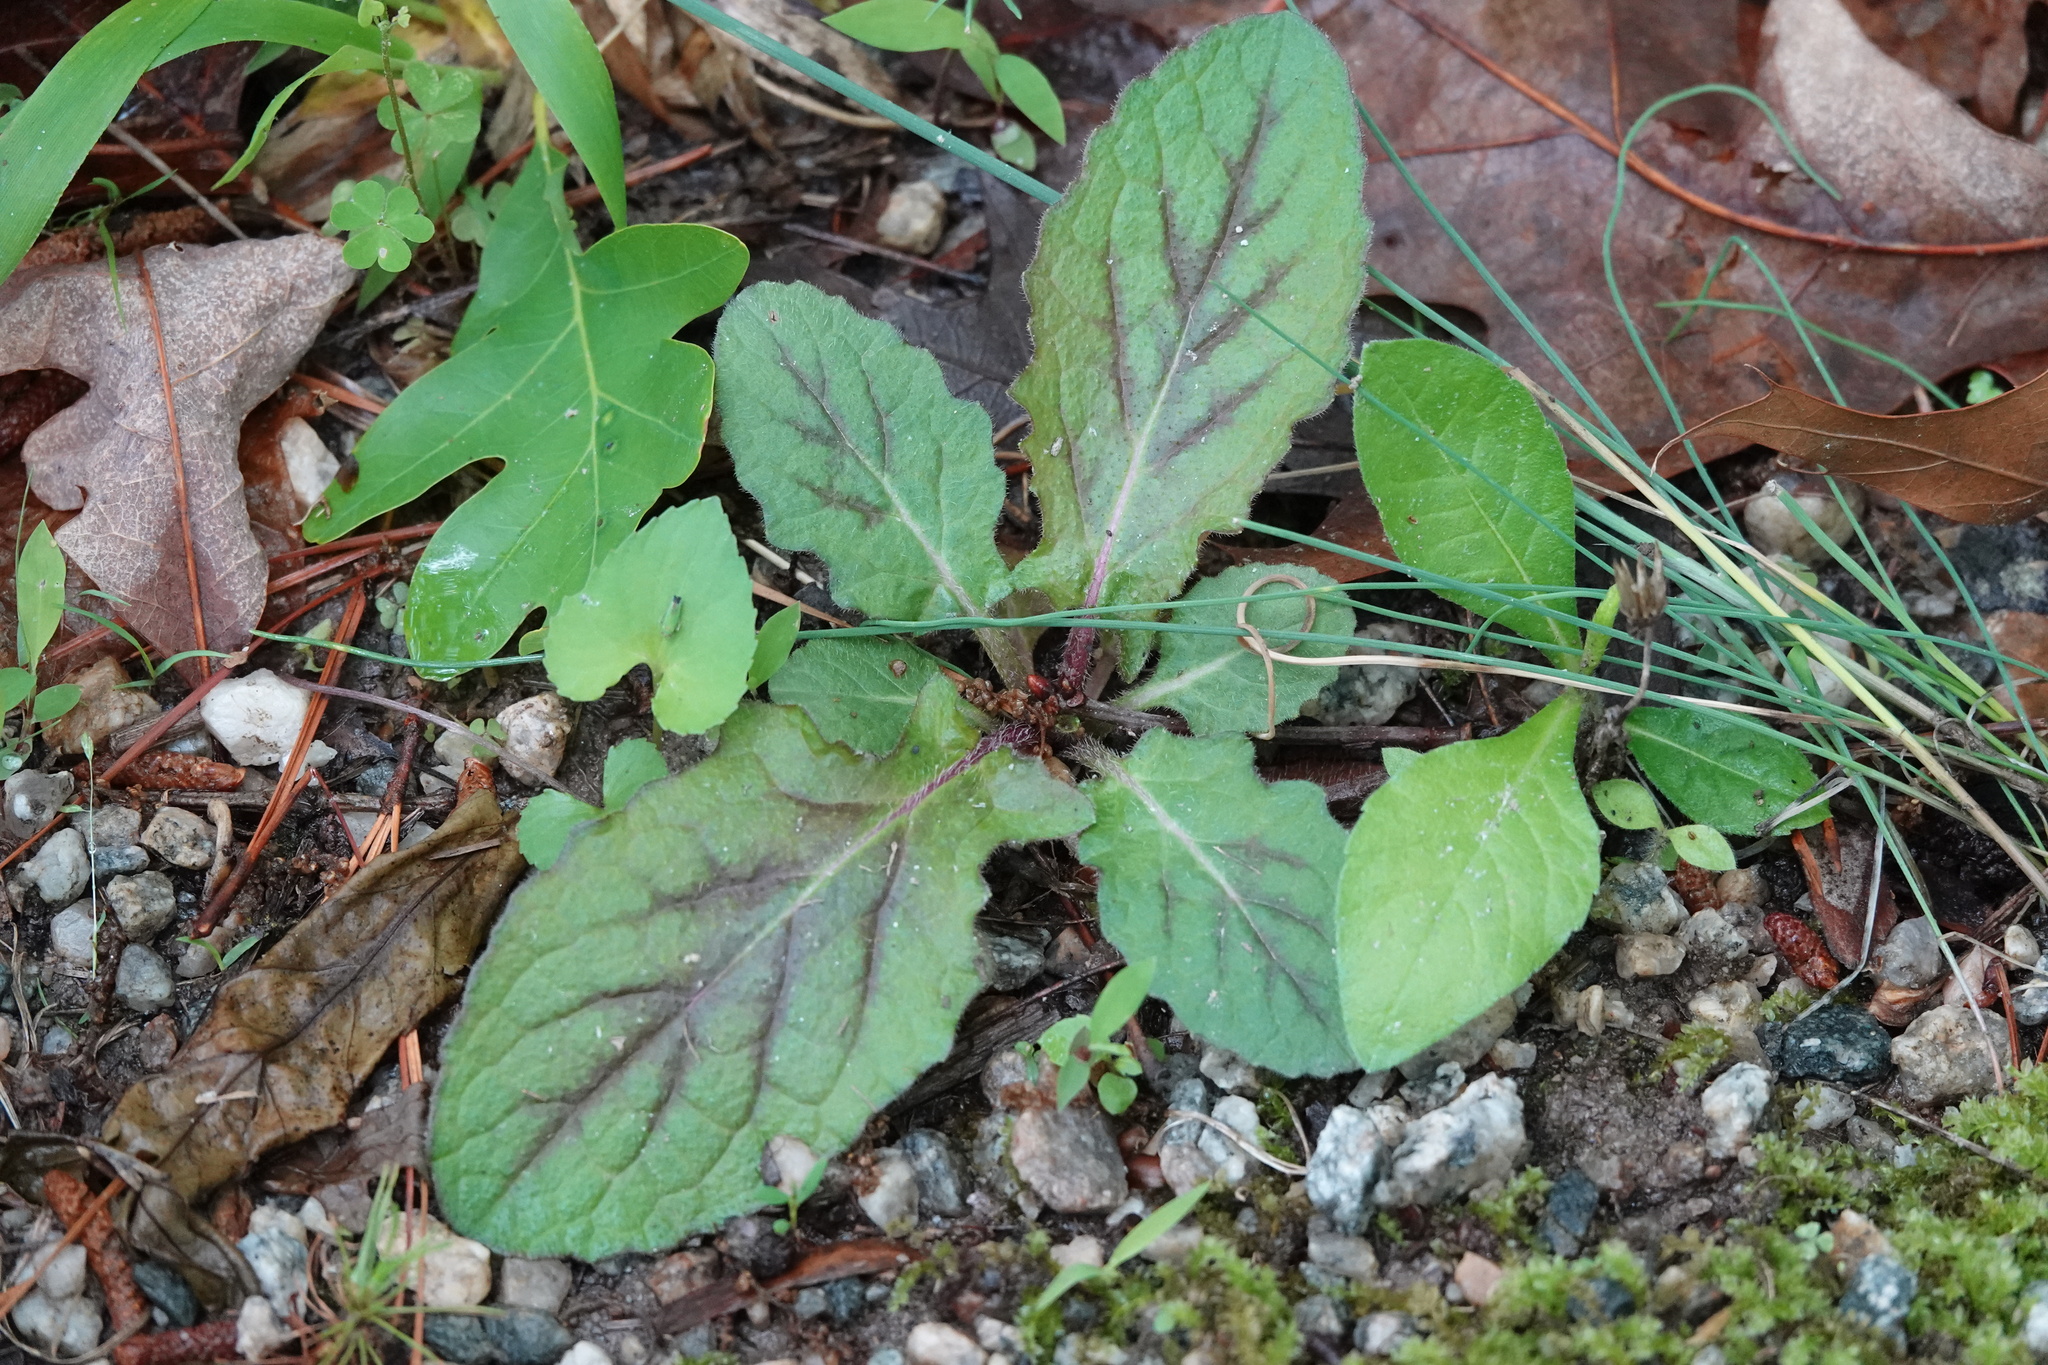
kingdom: Plantae
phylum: Tracheophyta
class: Magnoliopsida
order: Lamiales
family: Lamiaceae
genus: Salvia
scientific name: Salvia lyrata
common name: Cancerweed
